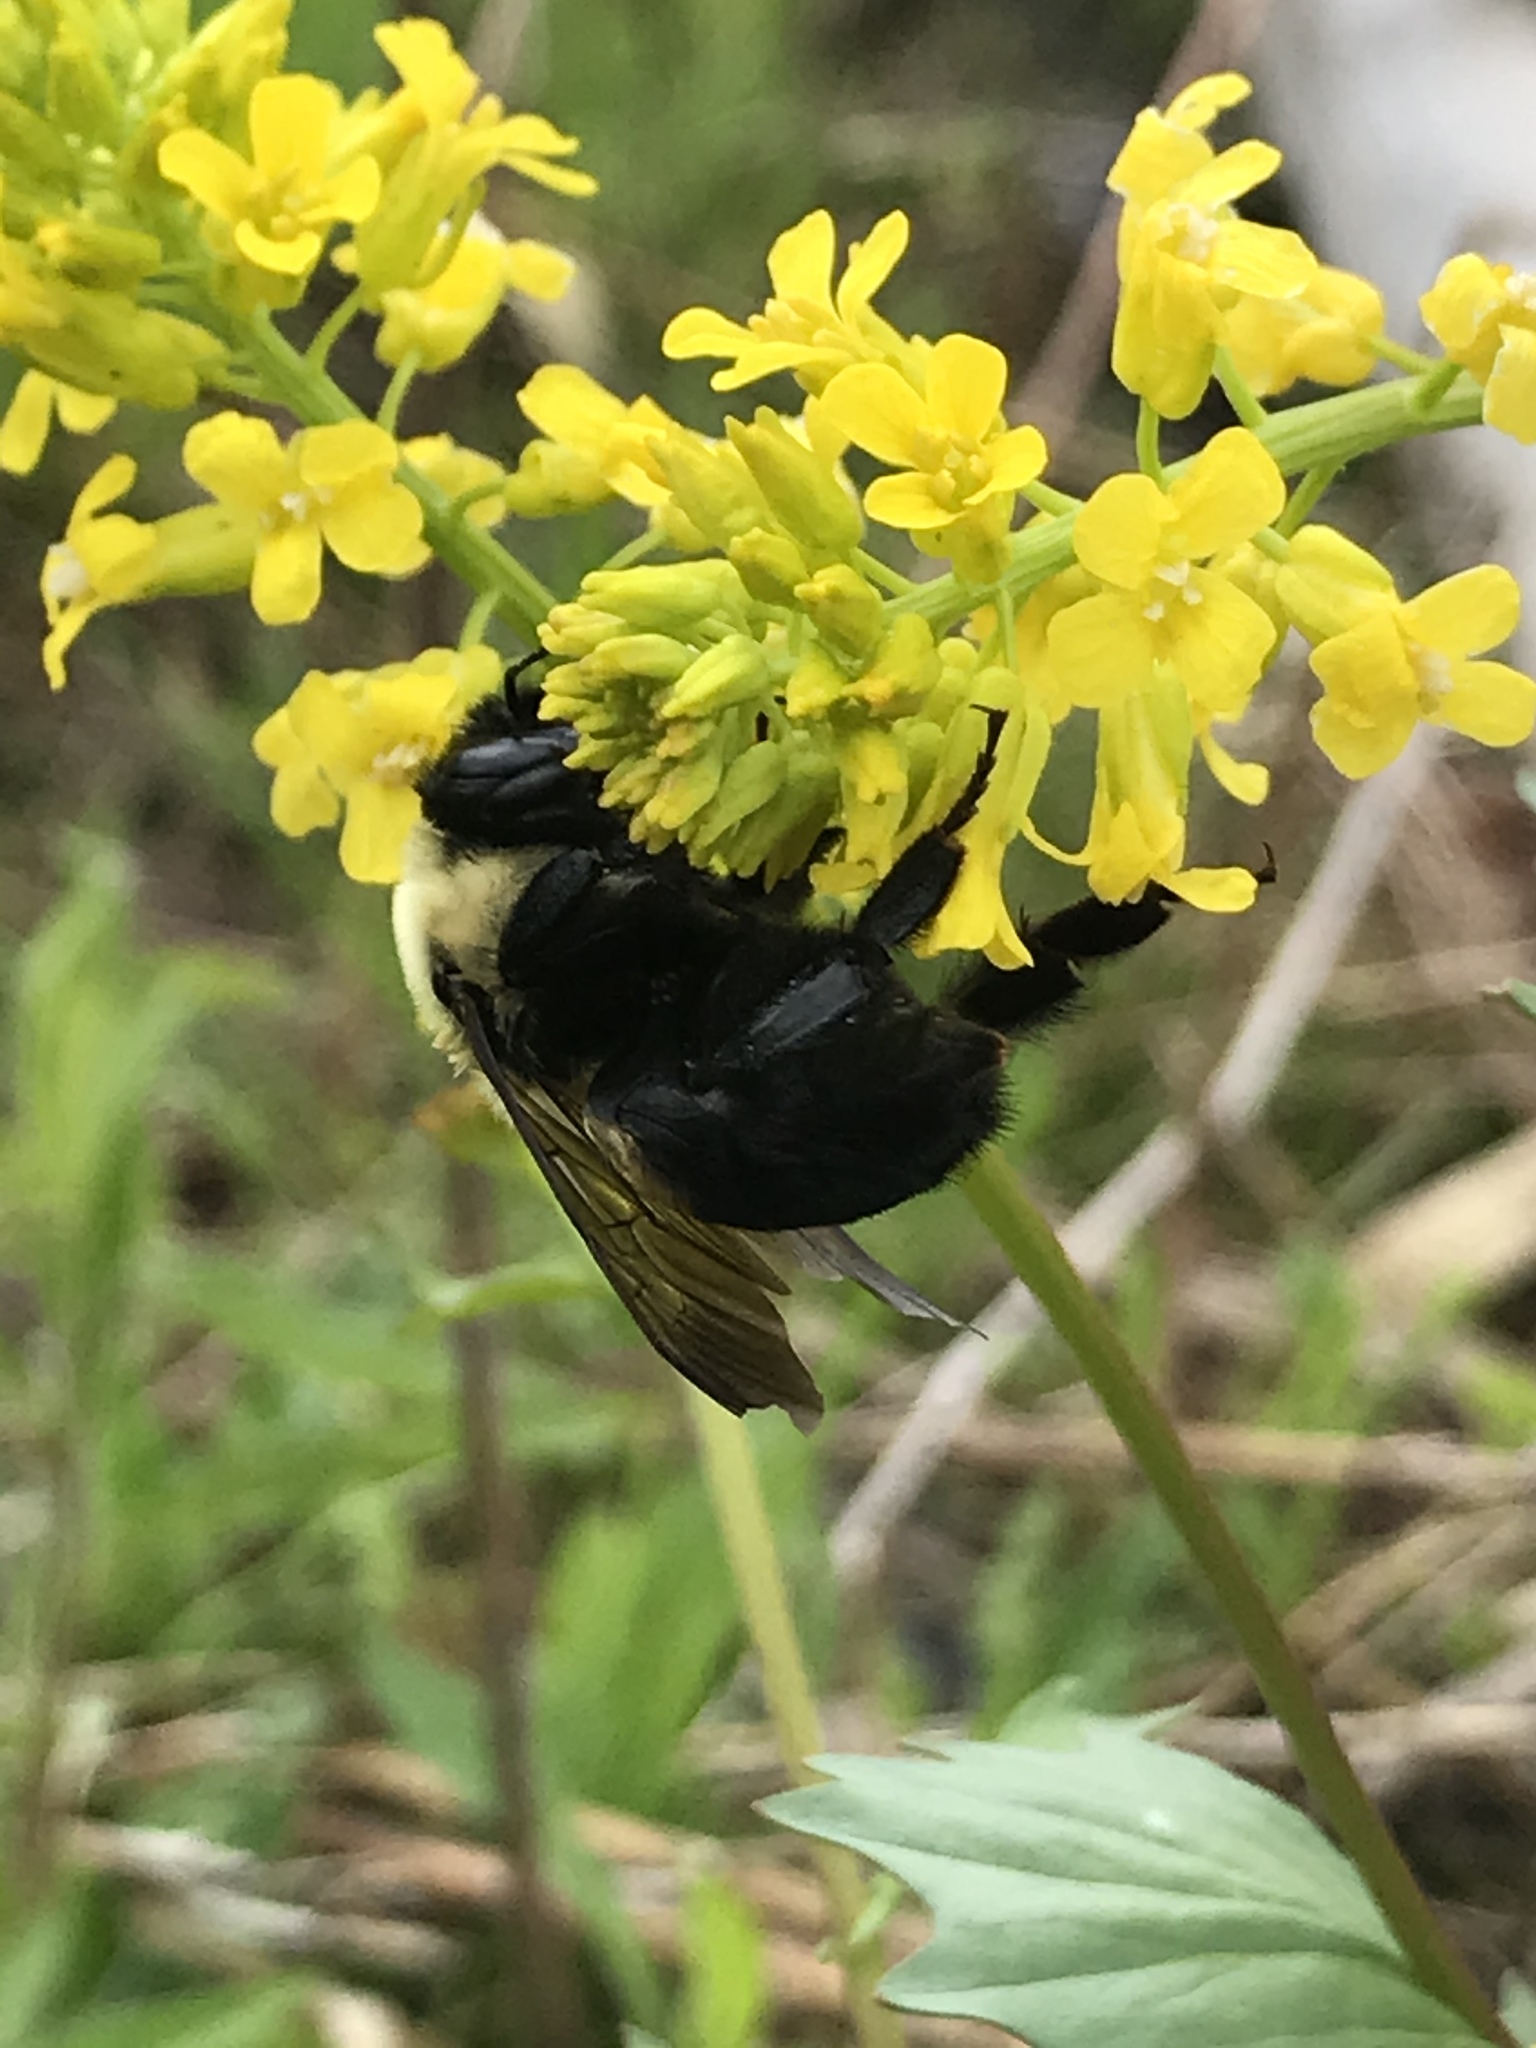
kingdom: Animalia
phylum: Arthropoda
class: Insecta
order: Hymenoptera
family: Apidae
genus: Bombus
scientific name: Bombus
